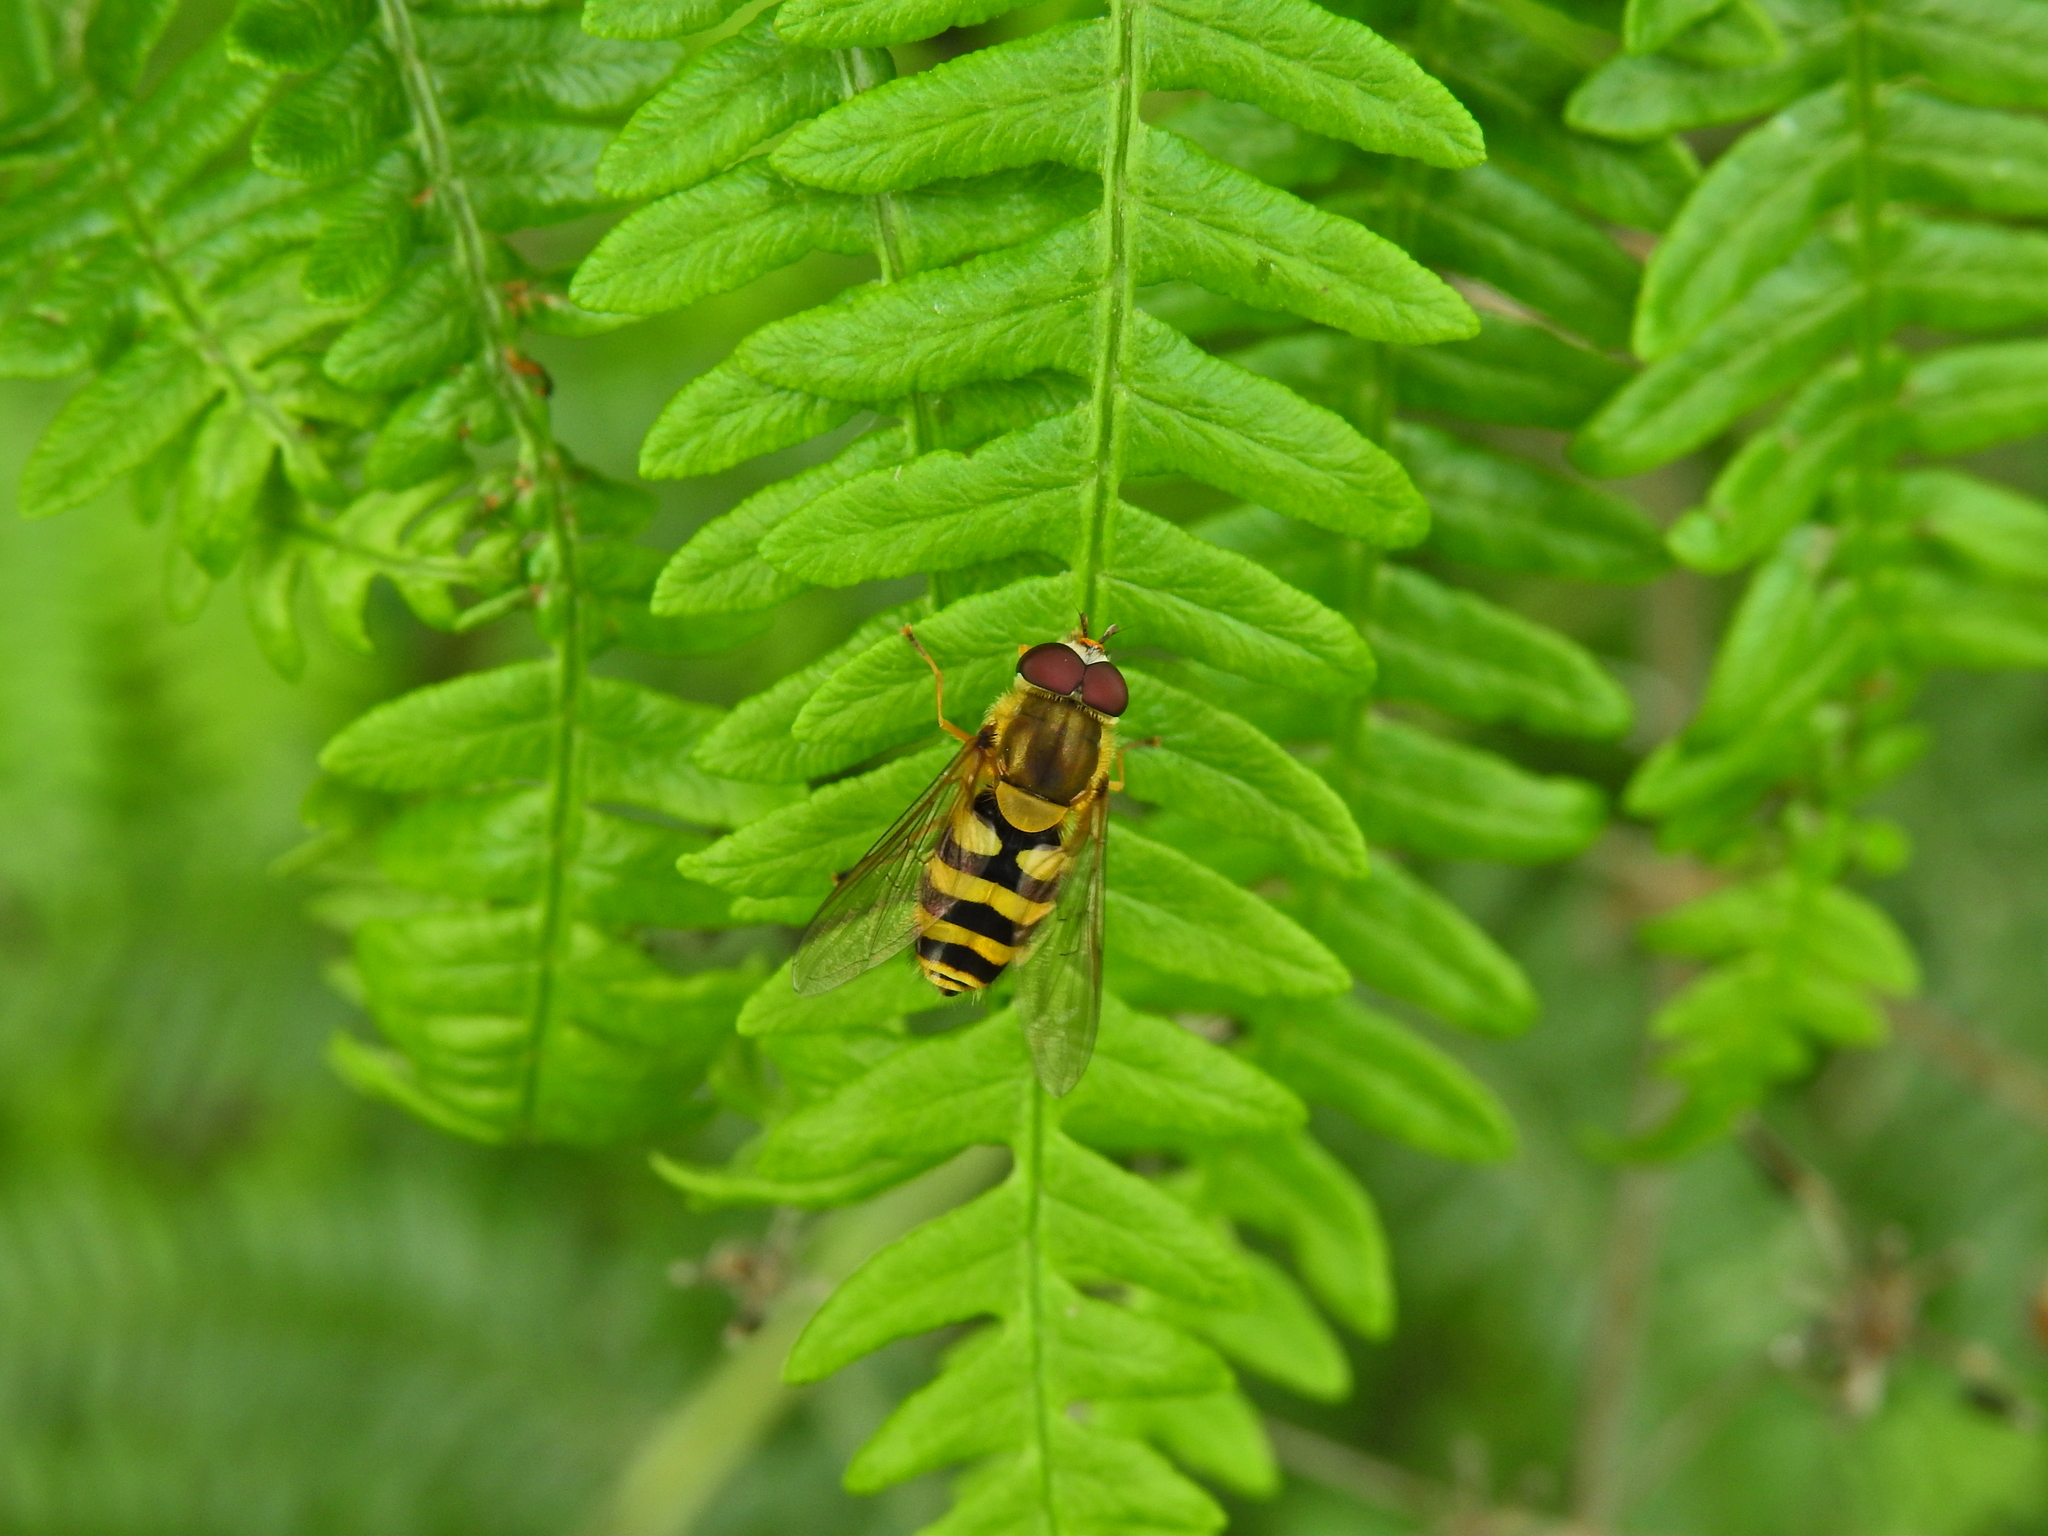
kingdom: Animalia
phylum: Arthropoda
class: Insecta
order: Diptera
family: Syrphidae
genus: Syrphus
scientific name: Syrphus
